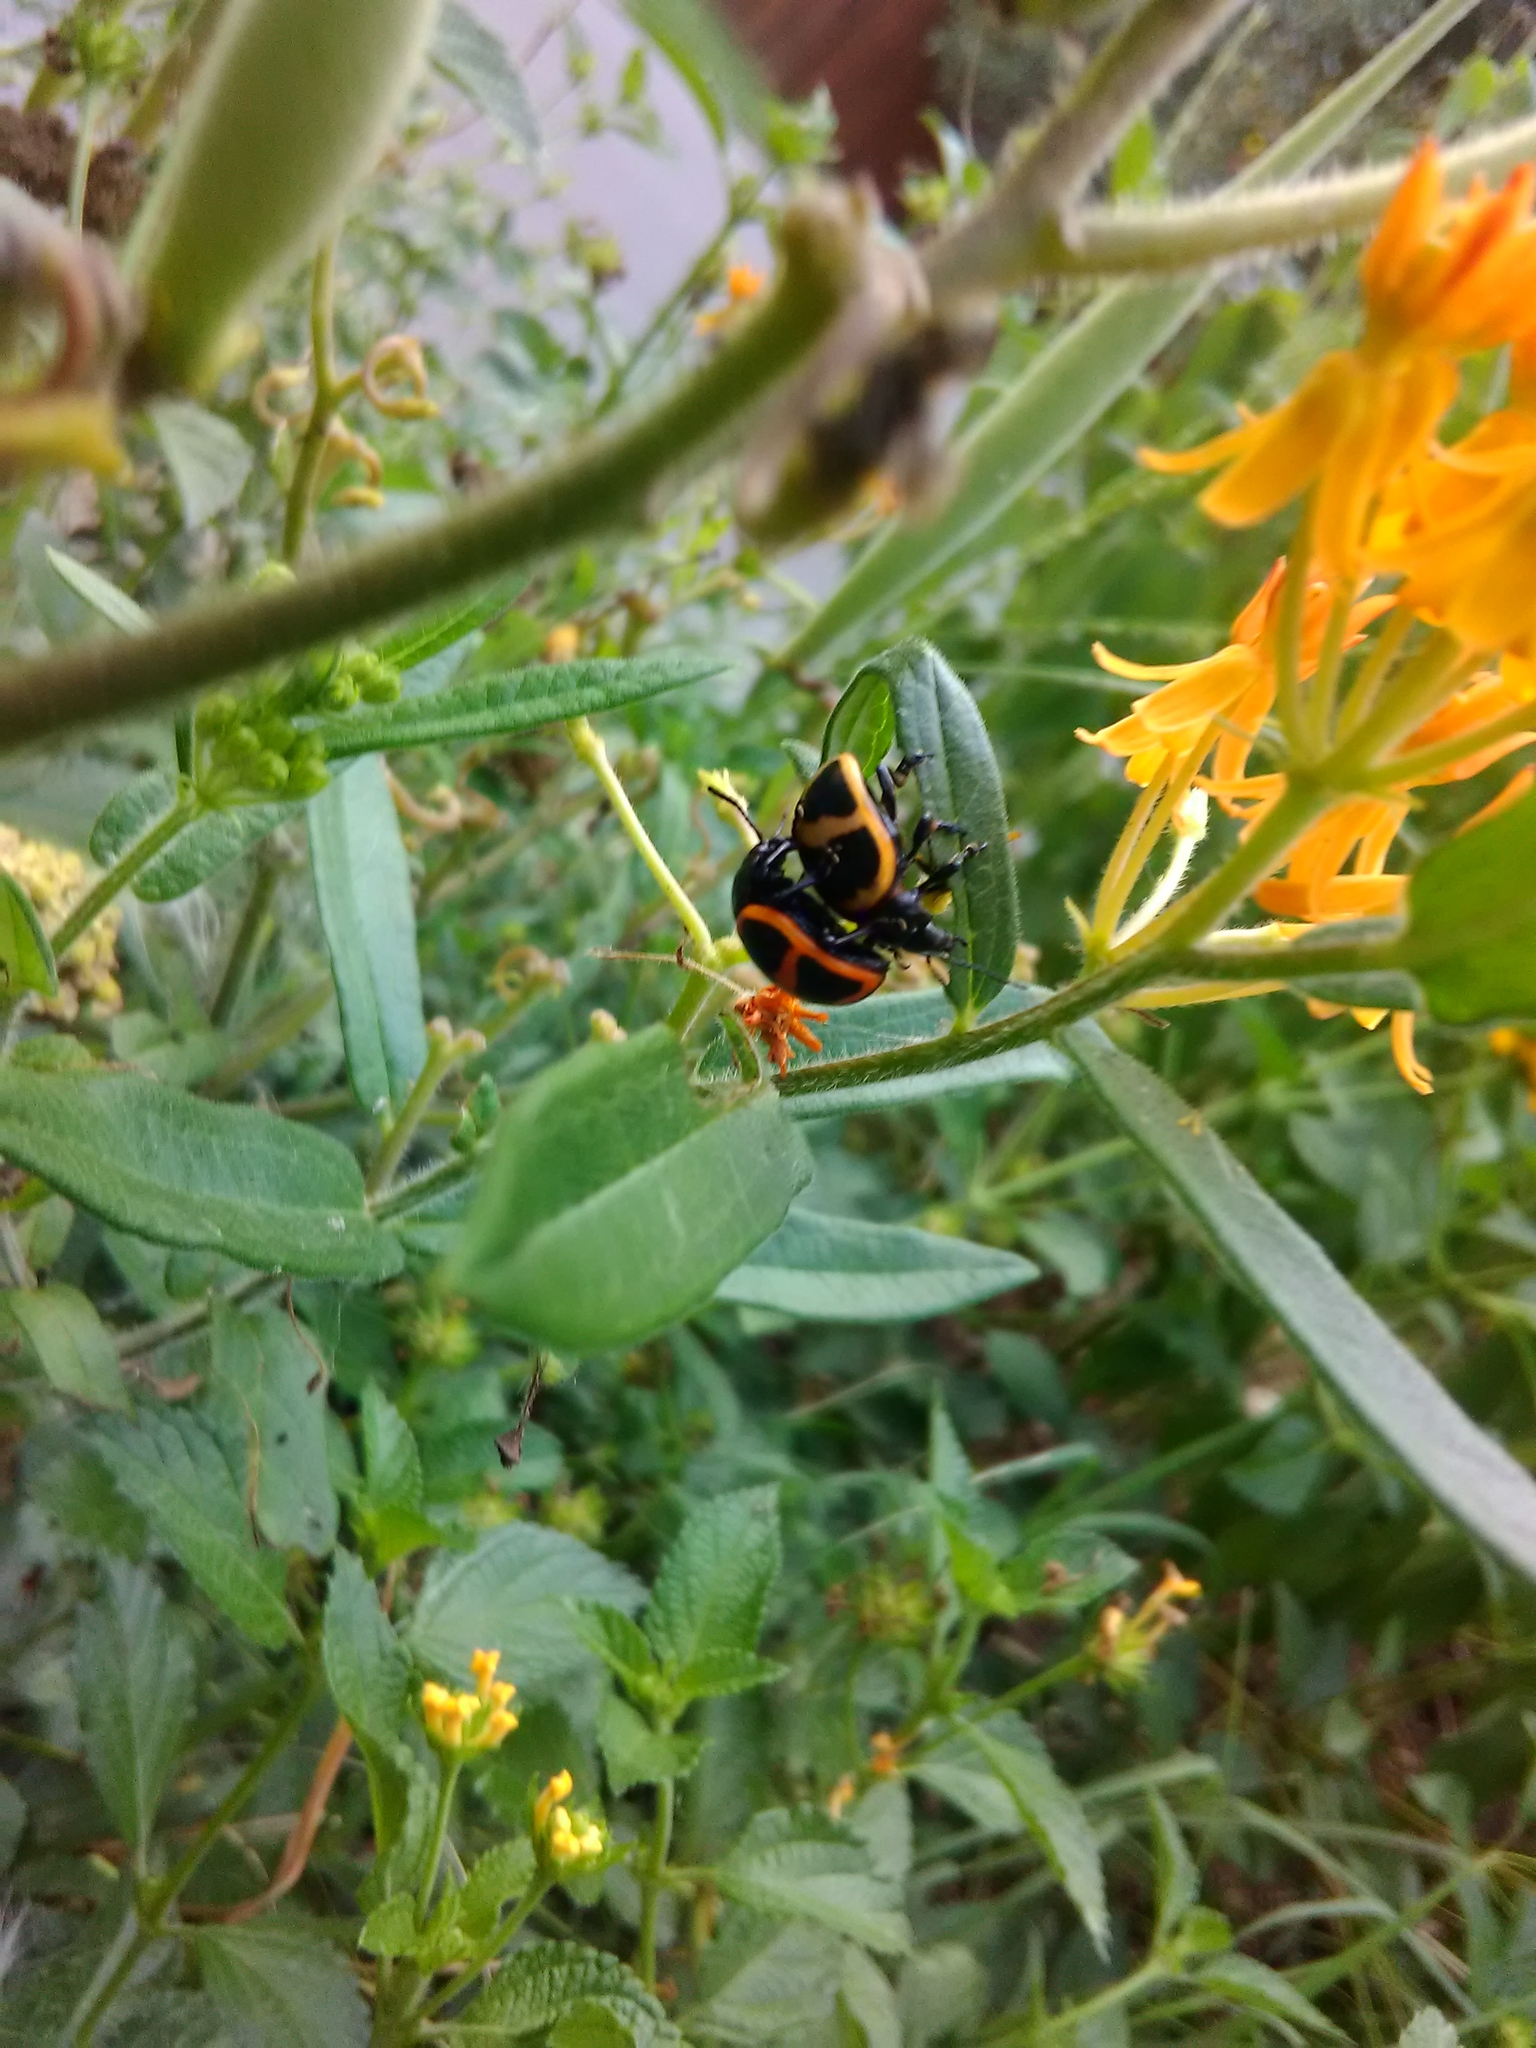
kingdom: Animalia
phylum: Arthropoda
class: Insecta
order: Coleoptera
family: Chrysomelidae
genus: Labidomera
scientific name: Labidomera clivicollis
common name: Swamp milkweed leaf beetle
